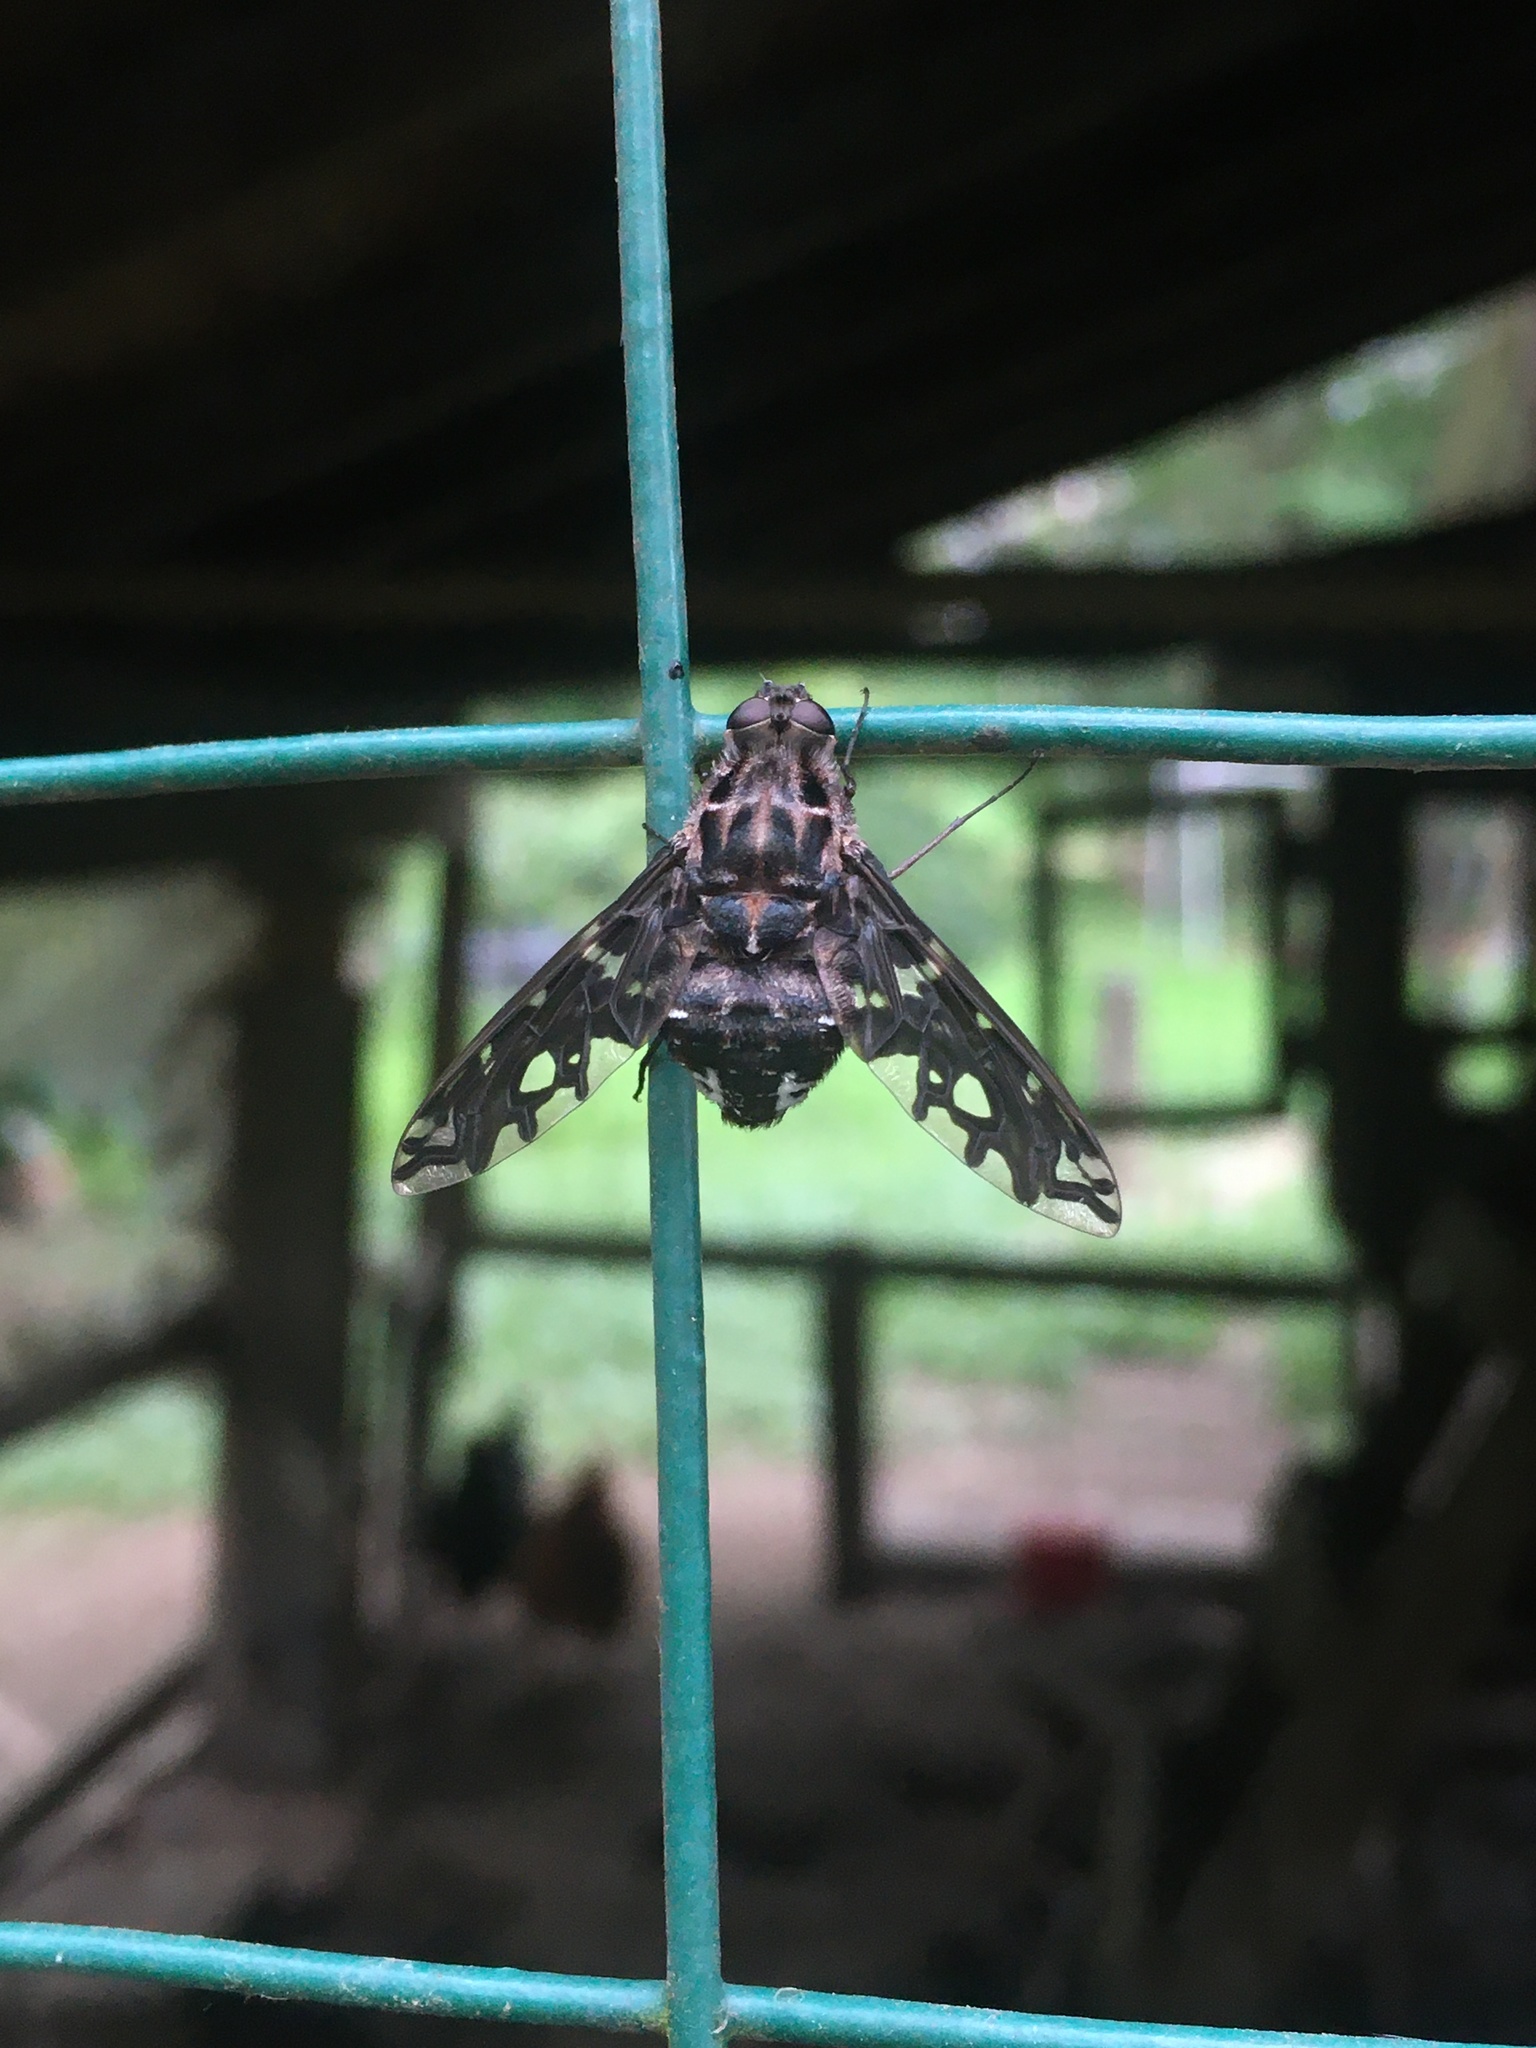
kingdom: Animalia
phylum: Arthropoda
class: Insecta
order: Diptera
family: Bombyliidae
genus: Xenox
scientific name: Xenox tigrinus
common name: Tiger bee fly
